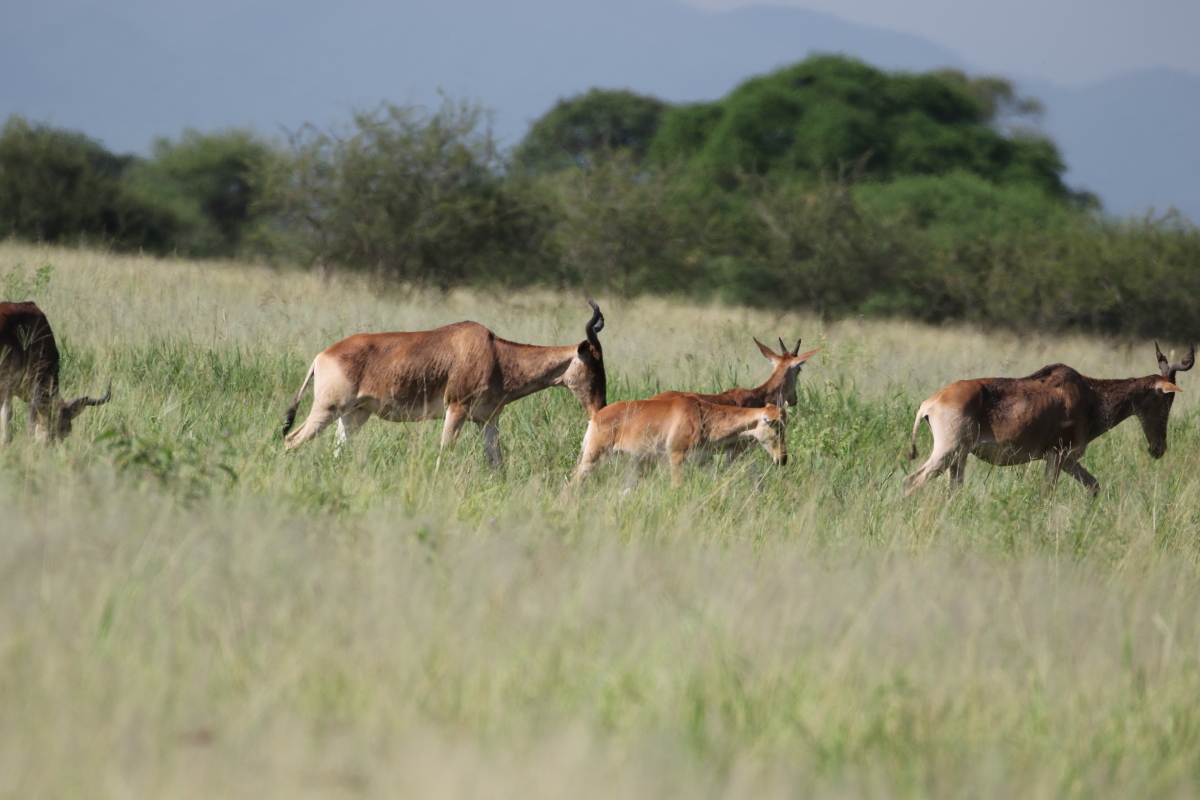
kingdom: Animalia
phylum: Chordata
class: Mammalia
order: Artiodactyla
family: Bovidae
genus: Alcelaphus
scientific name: Alcelaphus buselaphus
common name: Hartebeest
